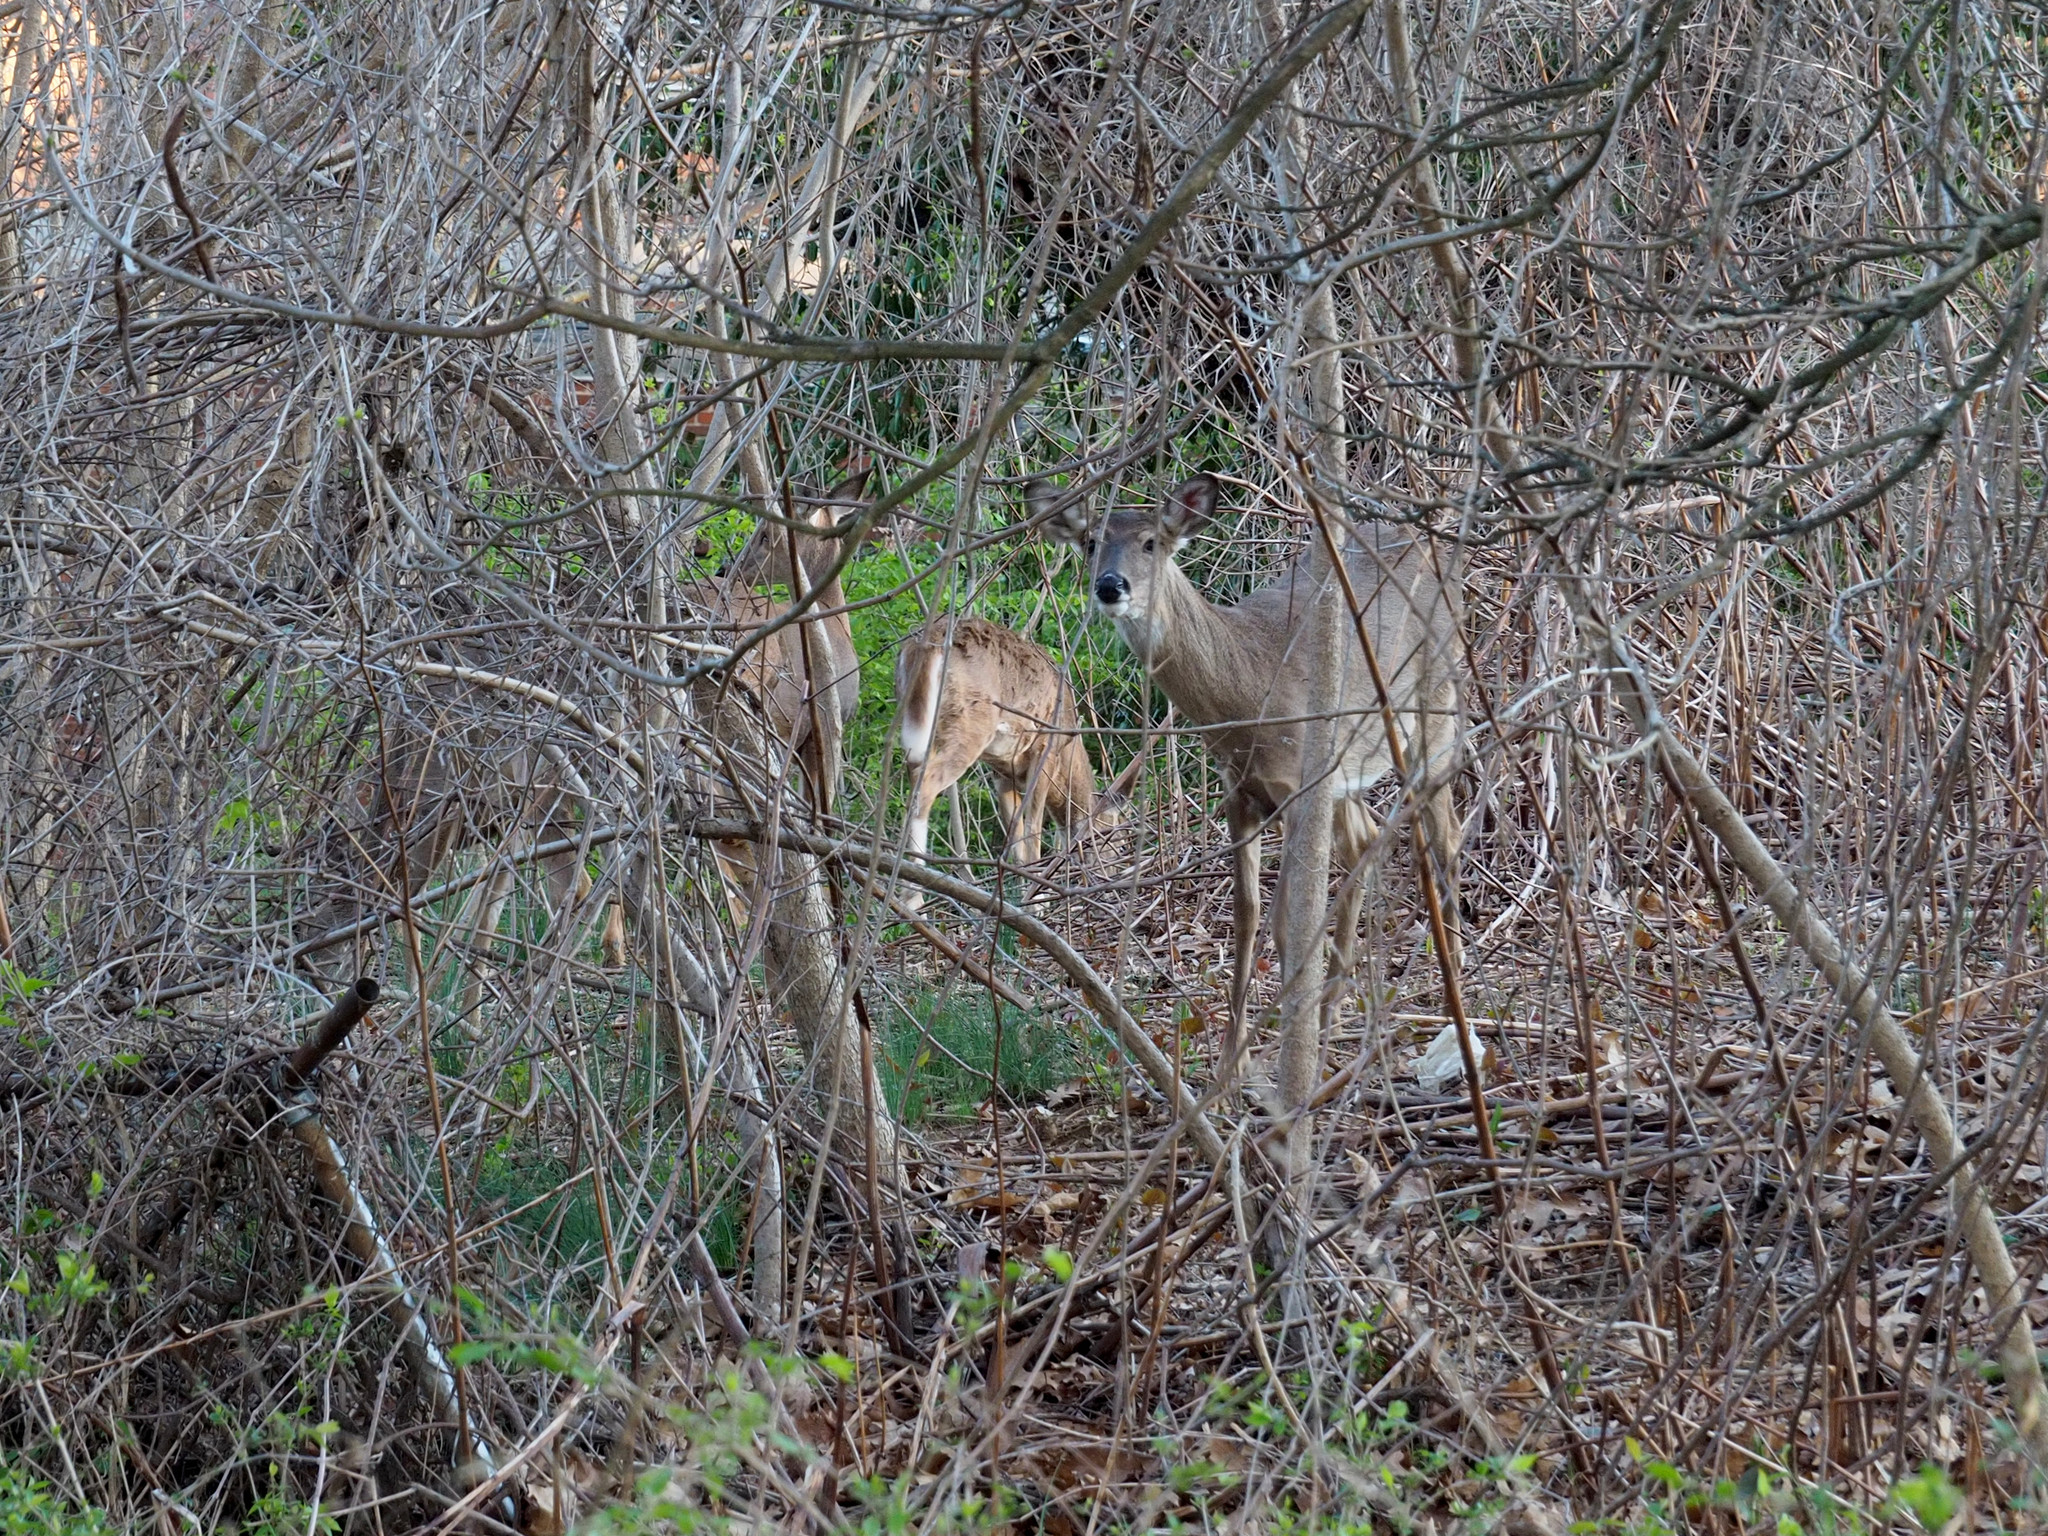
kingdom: Animalia
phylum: Chordata
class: Mammalia
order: Artiodactyla
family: Cervidae
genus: Odocoileus
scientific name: Odocoileus virginianus
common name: White-tailed deer
